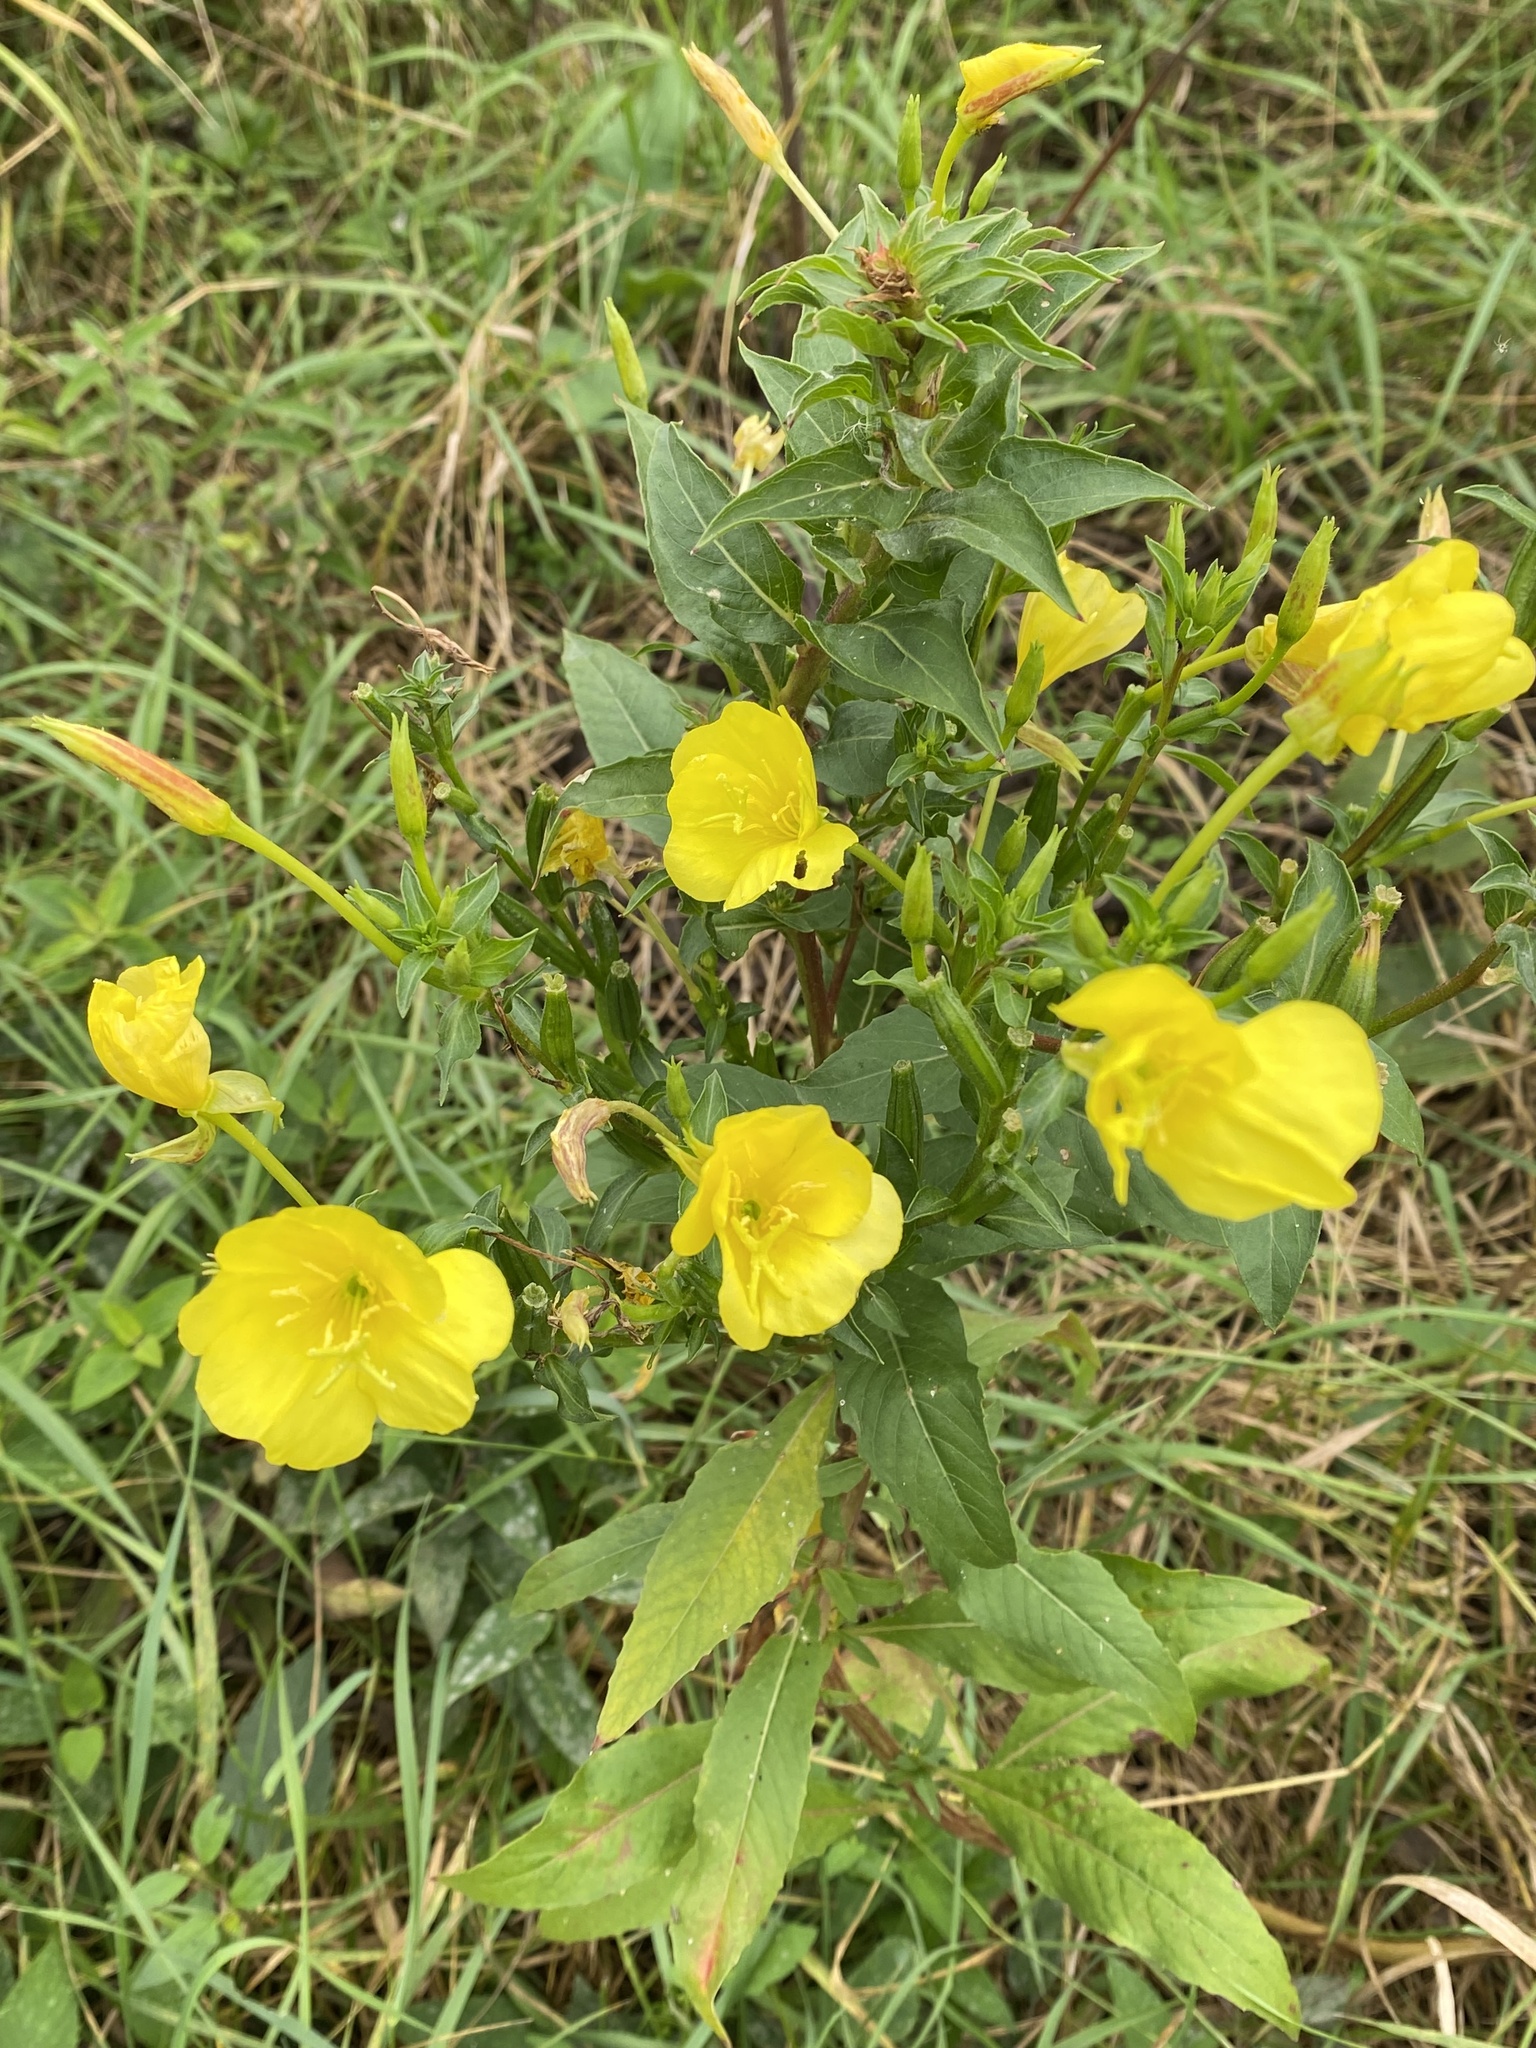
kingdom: Plantae
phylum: Tracheophyta
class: Magnoliopsida
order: Myrtales
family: Onagraceae
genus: Oenothera
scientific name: Oenothera biennis
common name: Common evening-primrose
